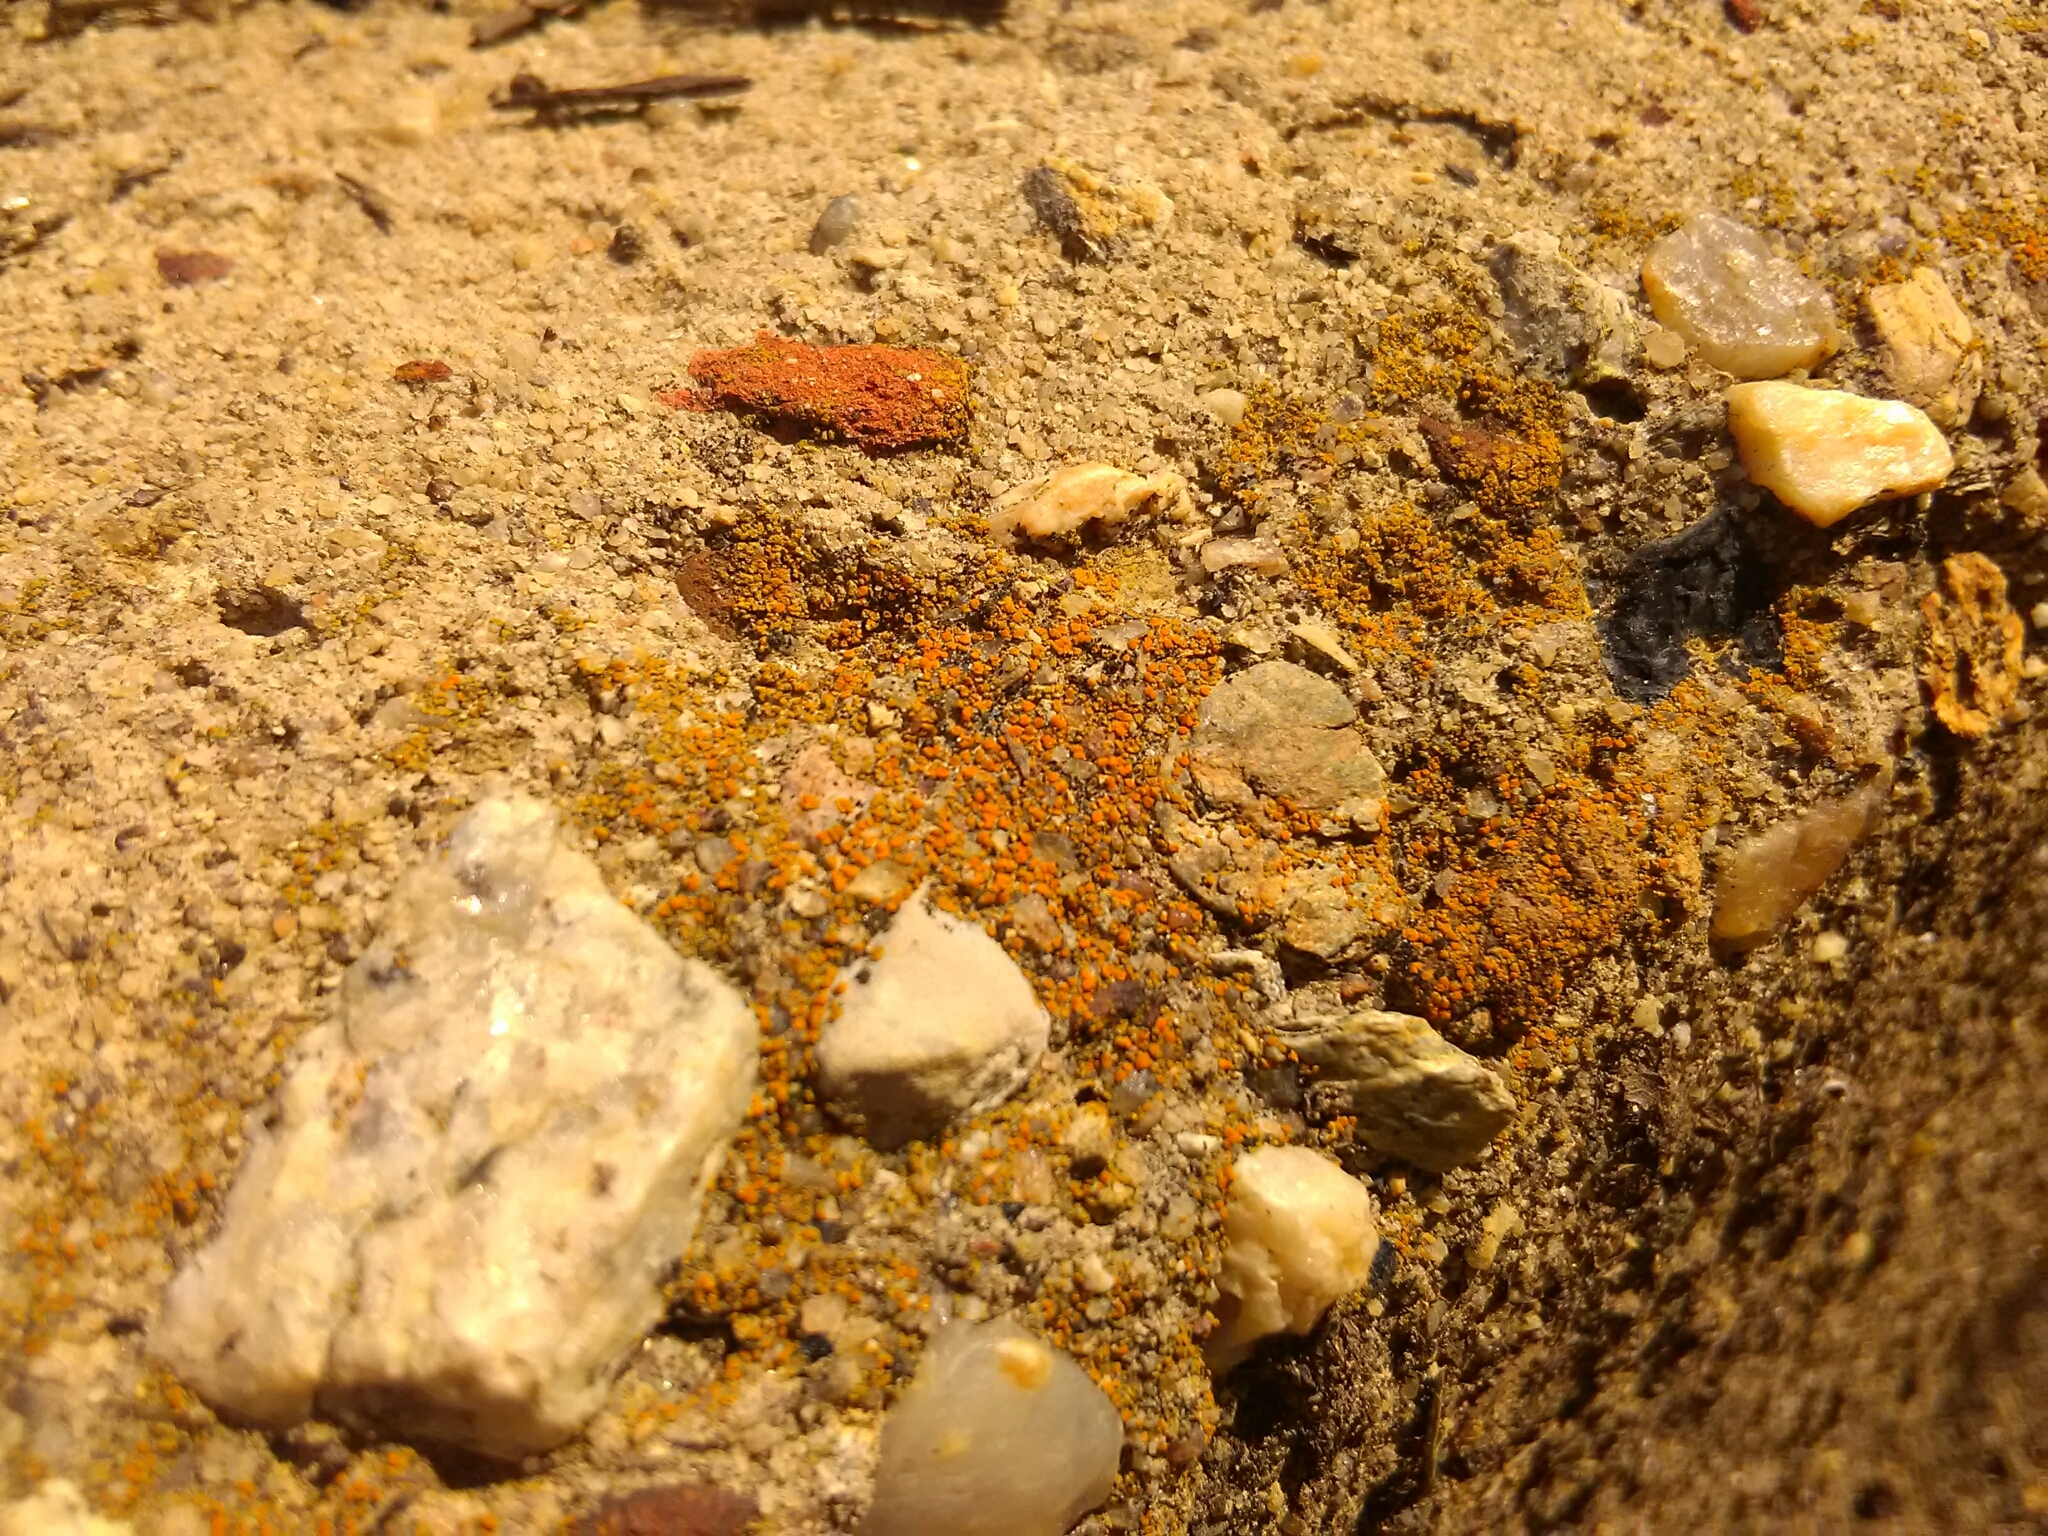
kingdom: Fungi
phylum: Ascomycota
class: Lecanoromycetes
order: Teloschistales
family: Teloschistaceae
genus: Gyalolechia
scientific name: Gyalolechia flavovirescens
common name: Sulphur firedot
